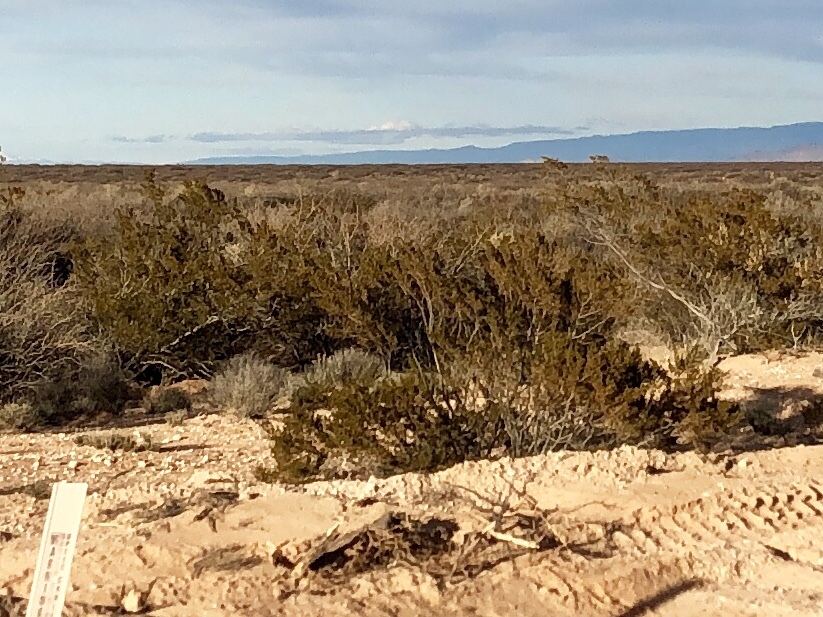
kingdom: Plantae
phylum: Tracheophyta
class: Magnoliopsida
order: Zygophyllales
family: Zygophyllaceae
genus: Larrea
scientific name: Larrea tridentata
